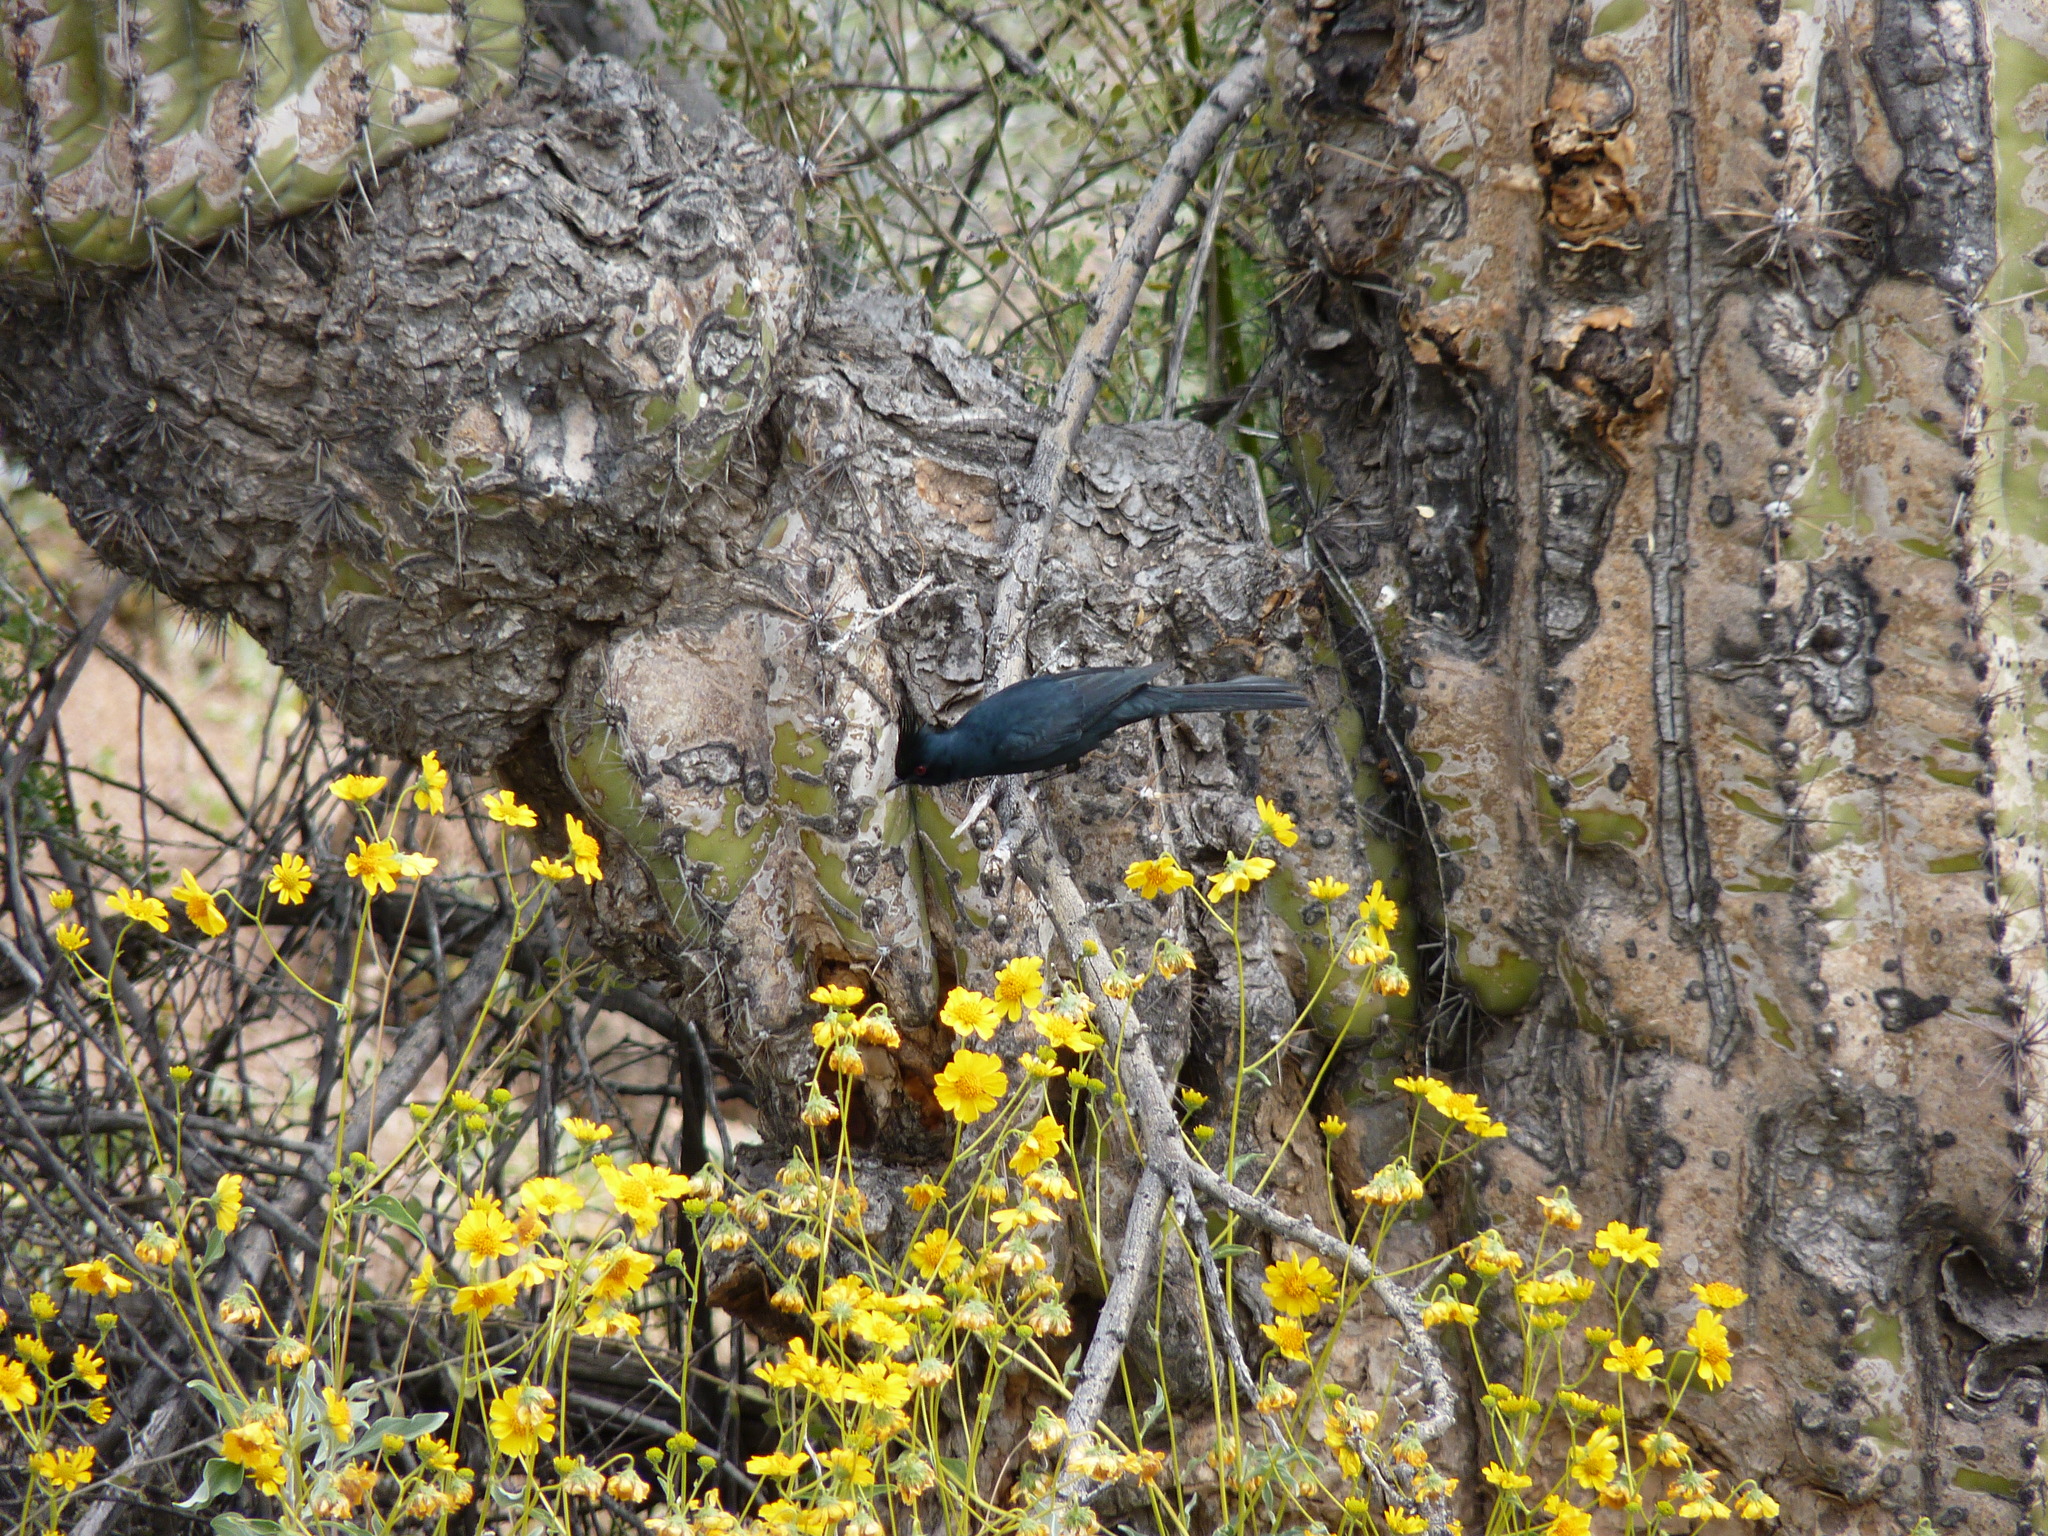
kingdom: Animalia
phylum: Chordata
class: Aves
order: Passeriformes
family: Ptilogonatidae
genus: Phainopepla
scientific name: Phainopepla nitens
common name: Phainopepla
